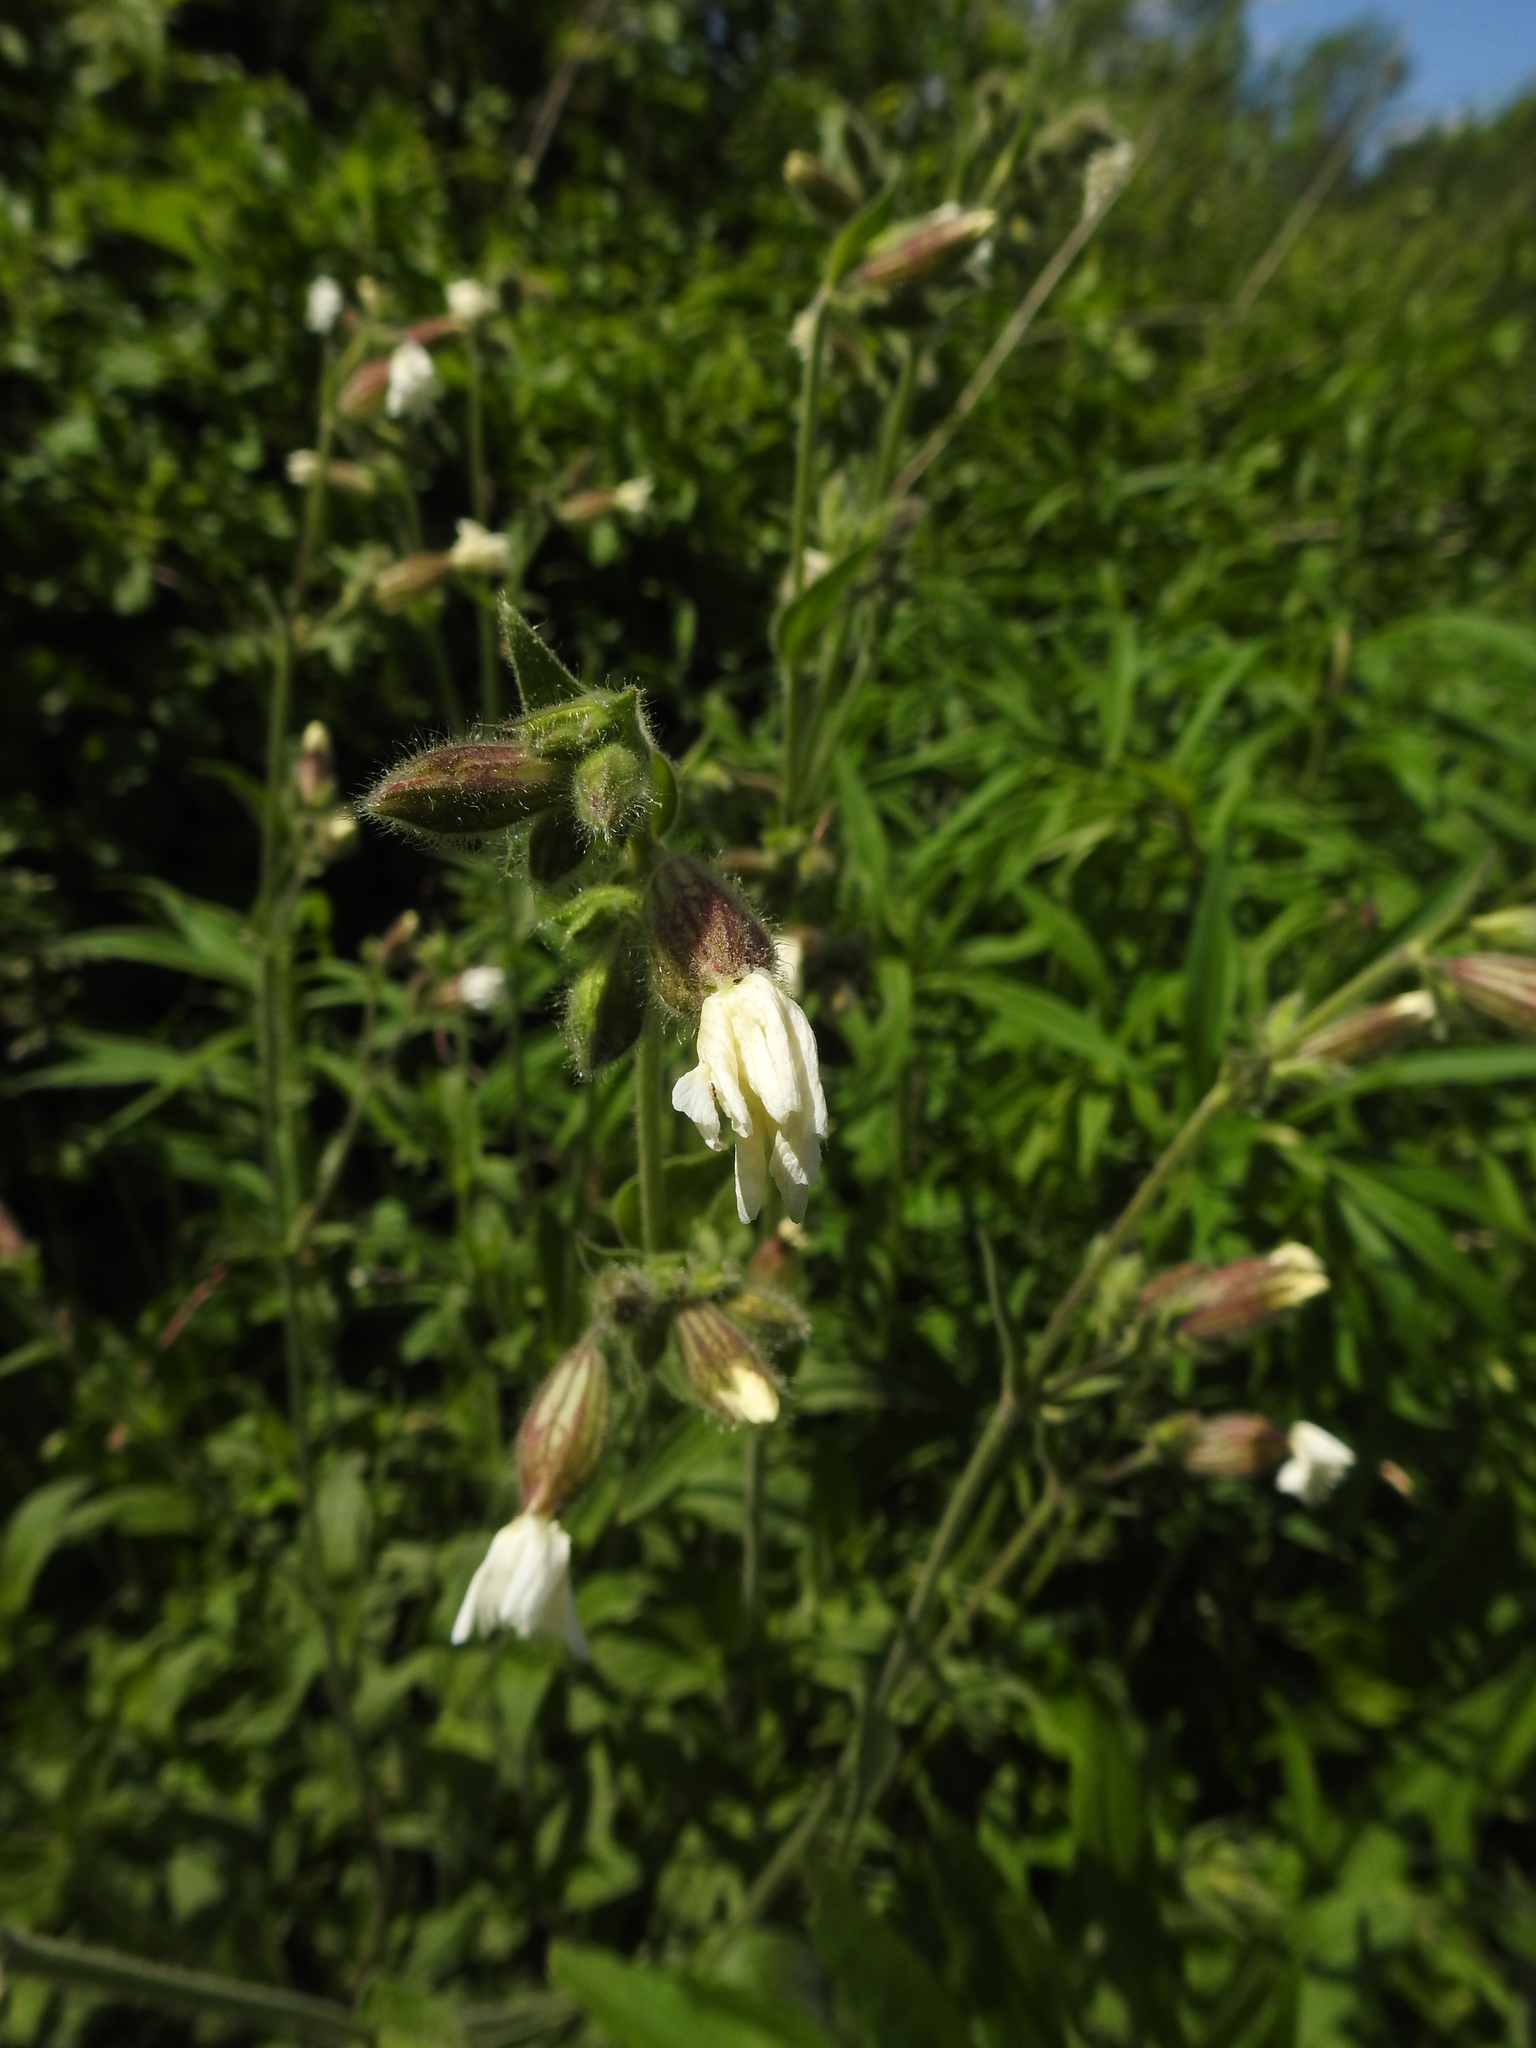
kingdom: Plantae
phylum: Tracheophyta
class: Magnoliopsida
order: Caryophyllales
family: Caryophyllaceae
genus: Silene
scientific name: Silene latifolia
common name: White campion
